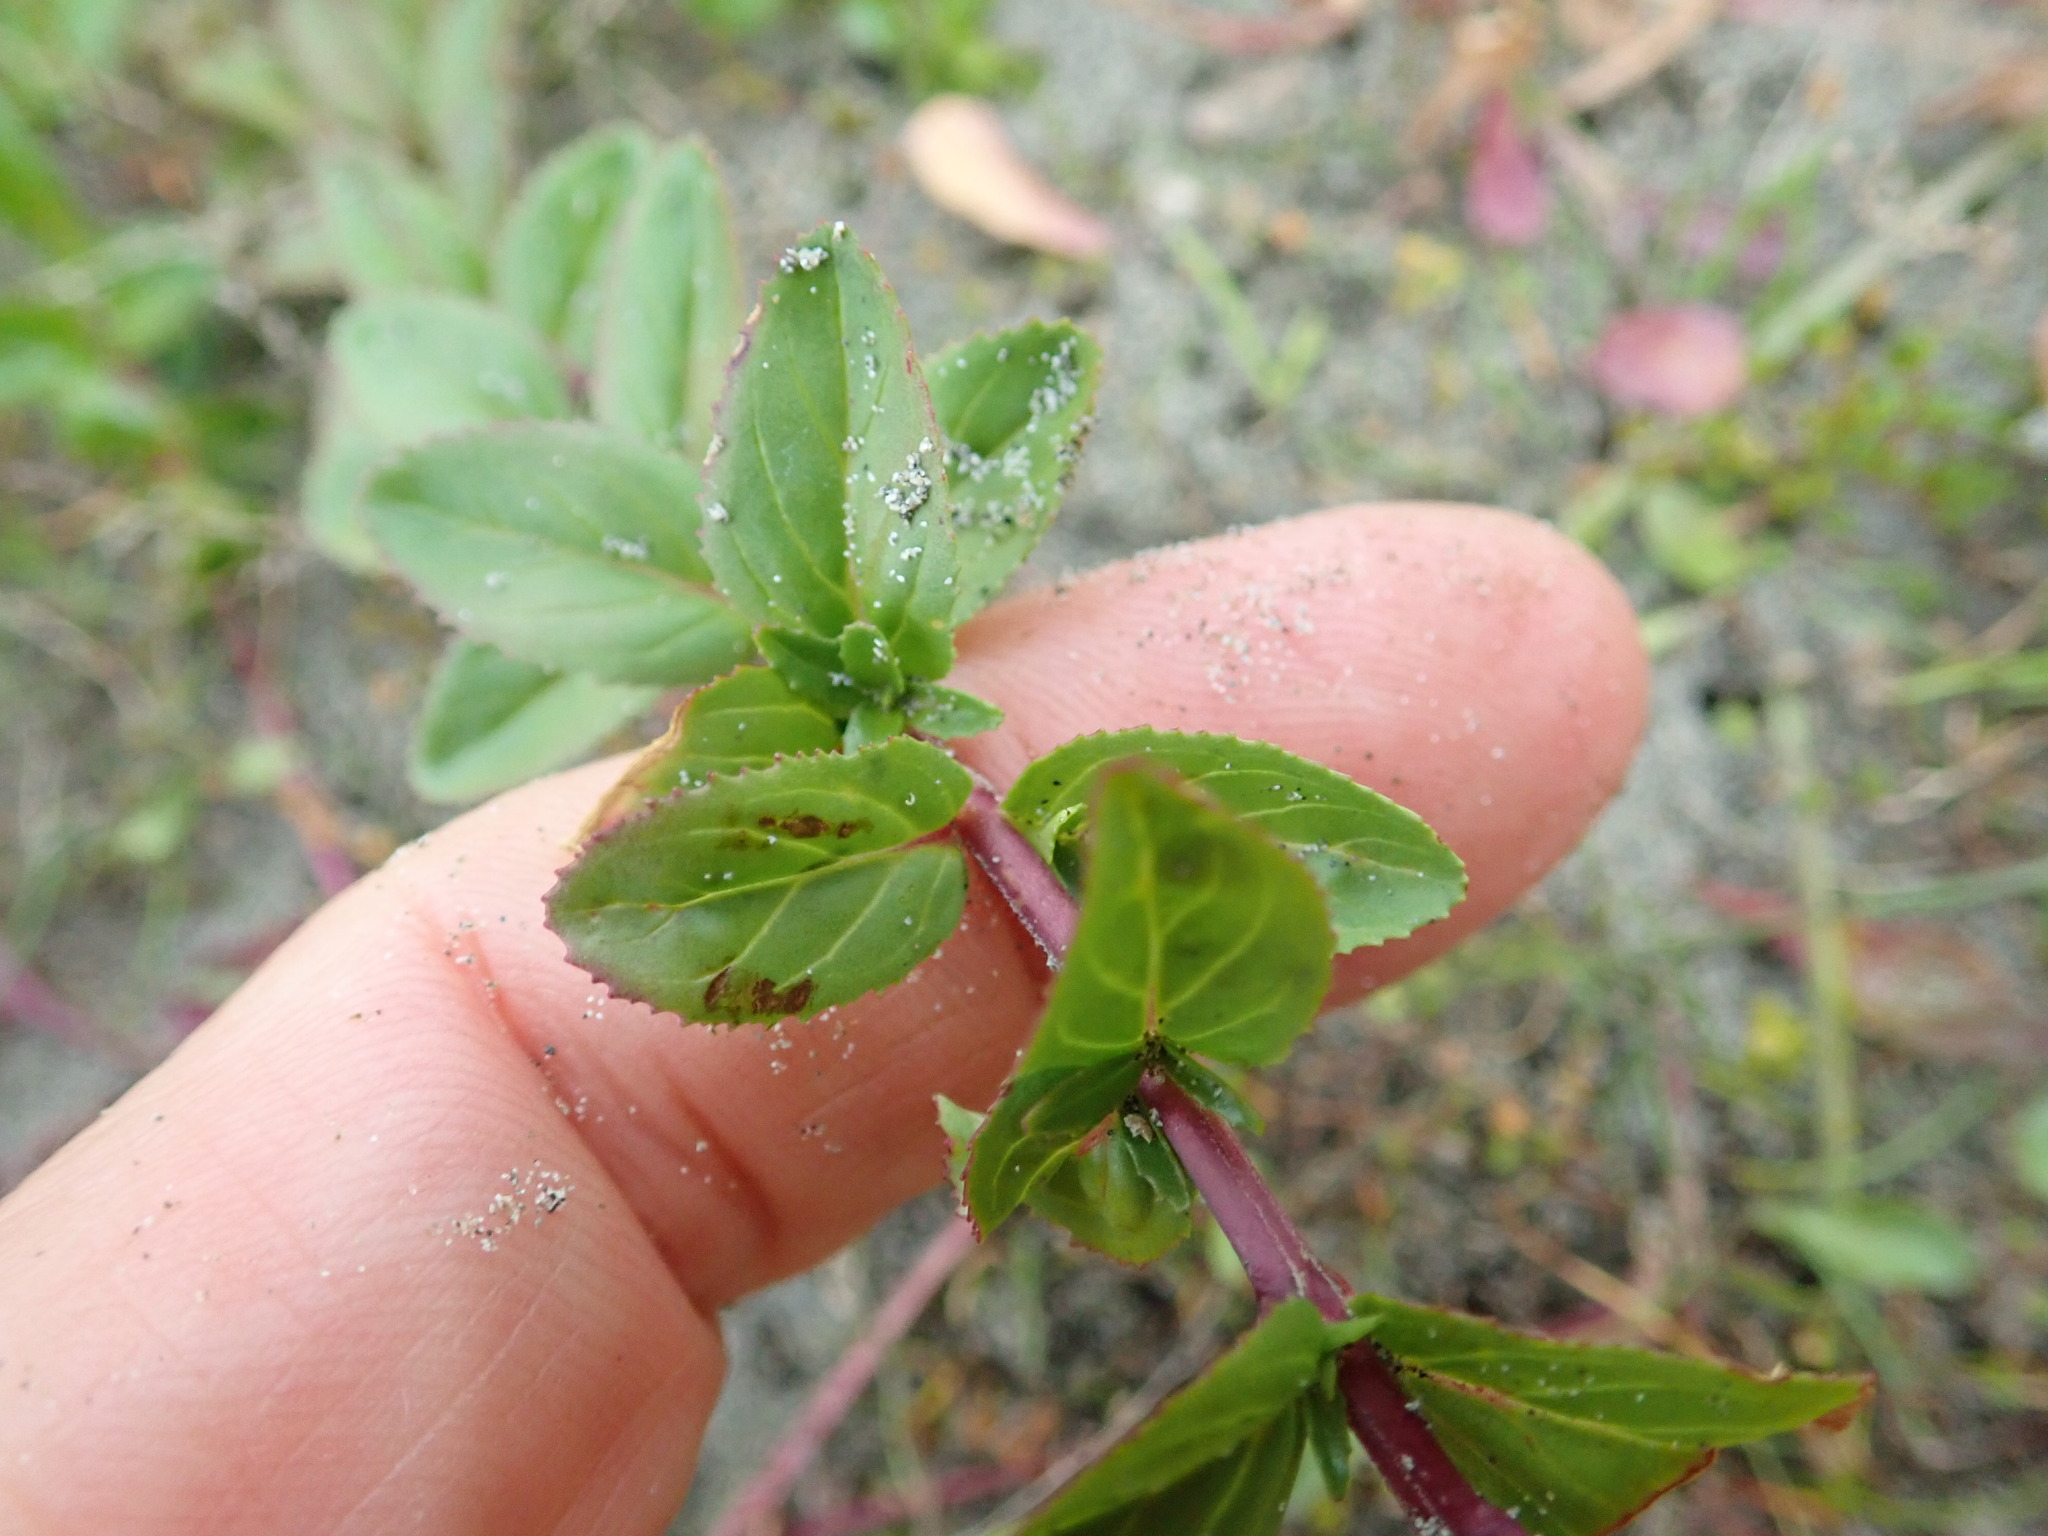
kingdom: Plantae
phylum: Tracheophyta
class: Magnoliopsida
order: Myrtales
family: Onagraceae
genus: Epilobium
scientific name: Epilobium billardiereanum
